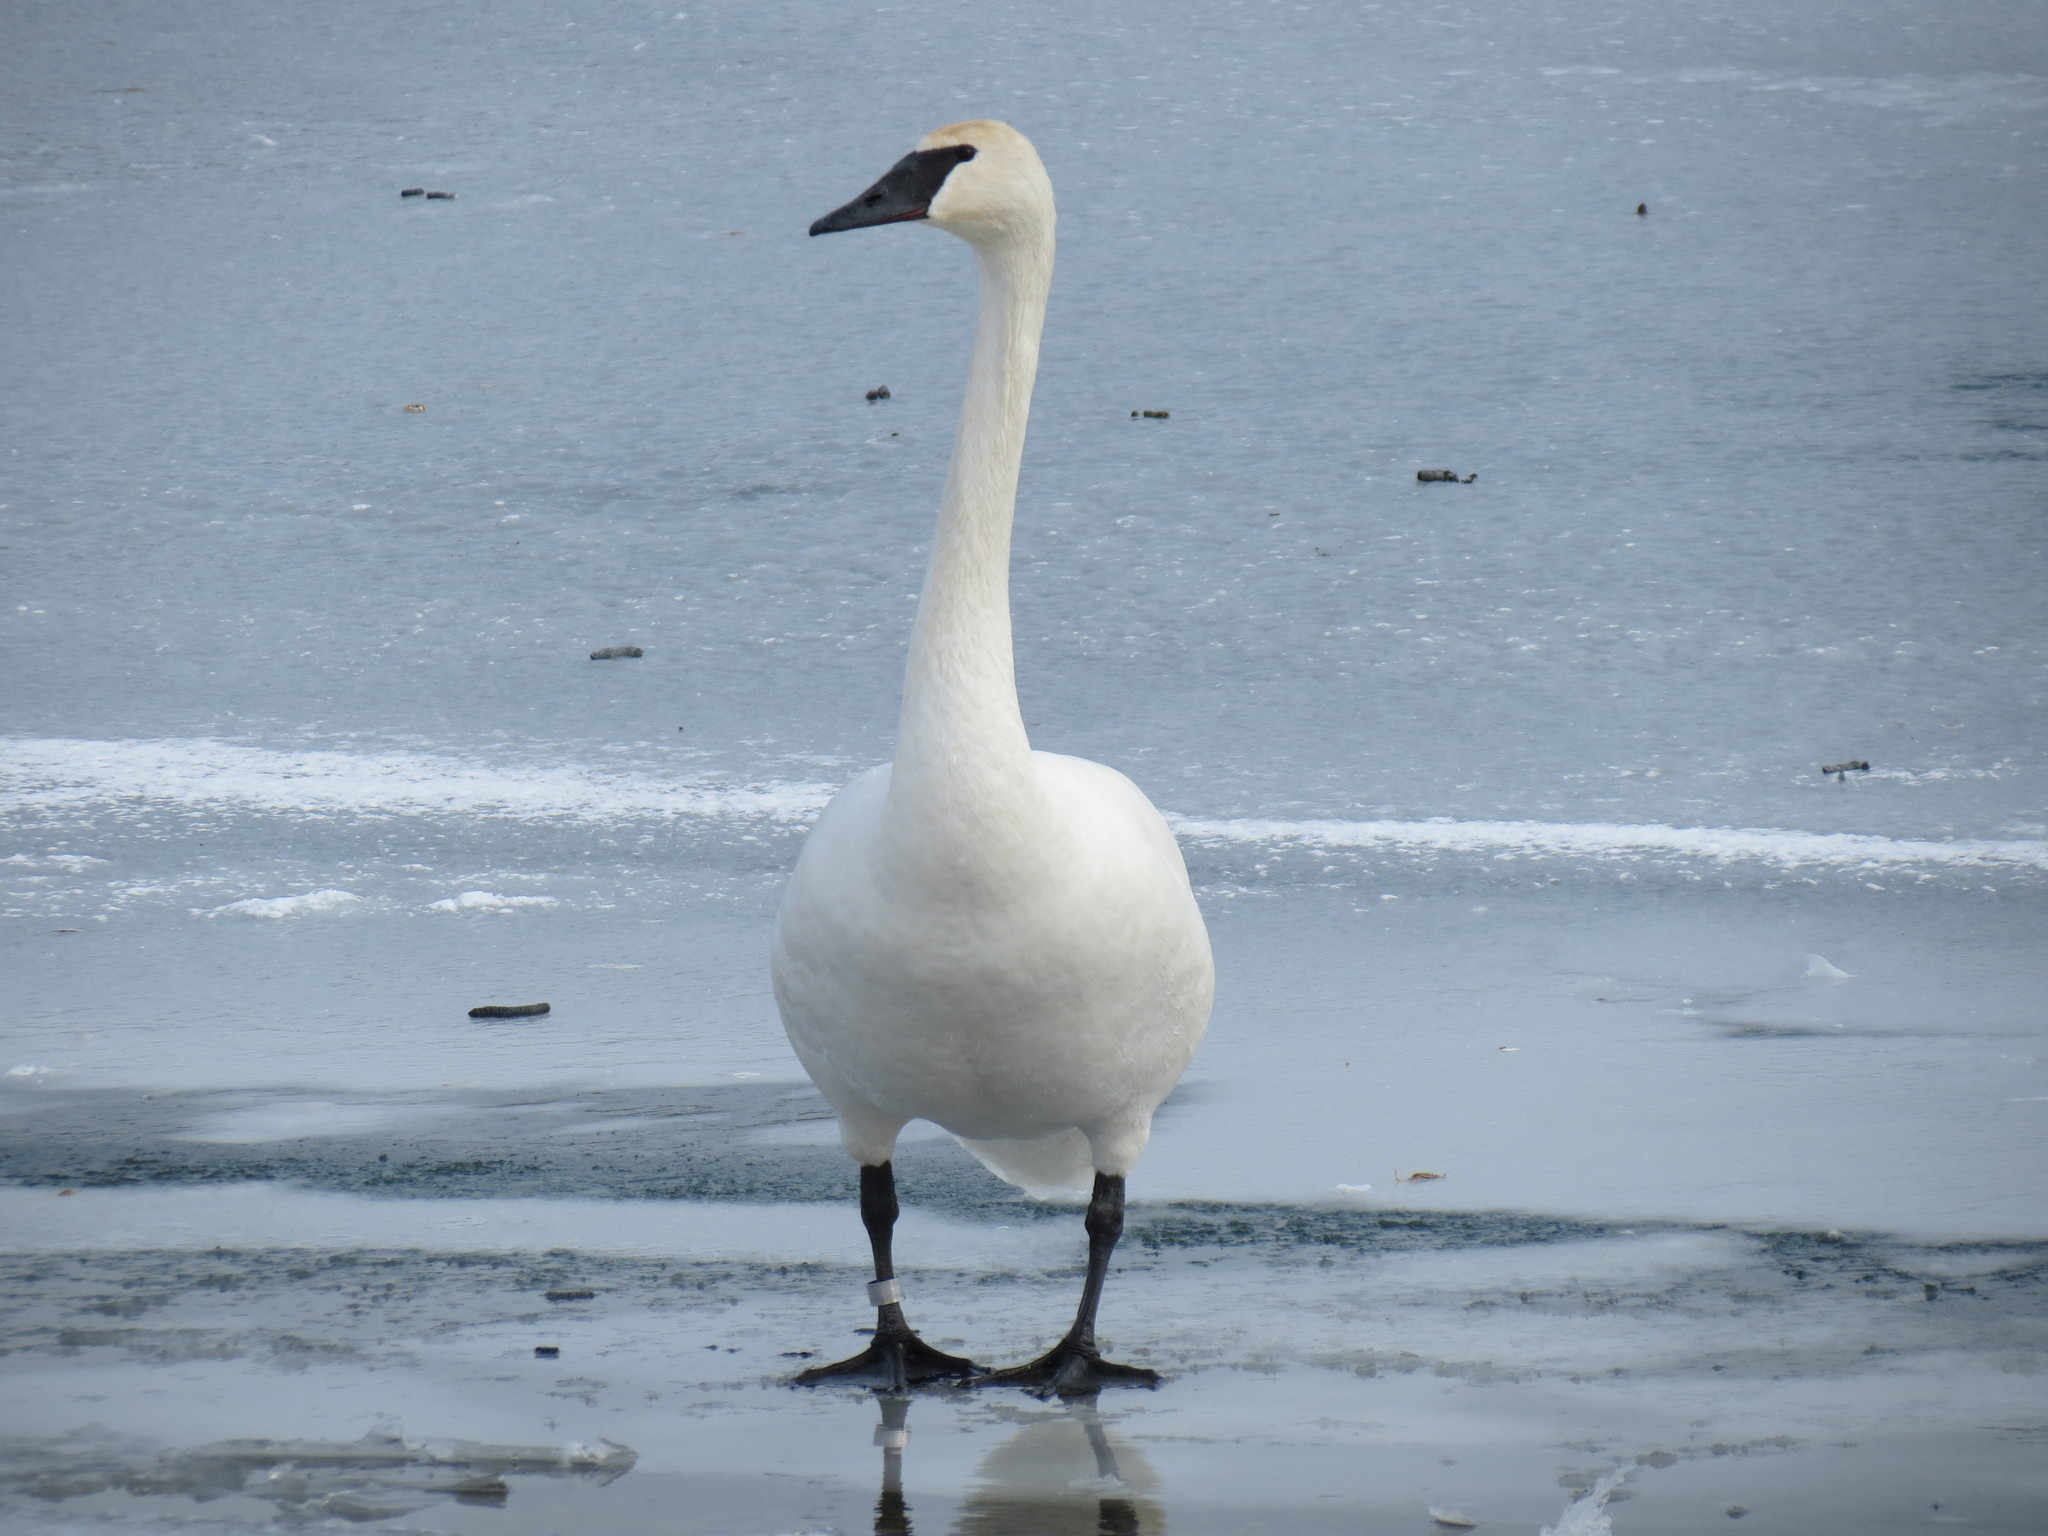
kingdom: Animalia
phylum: Chordata
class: Aves
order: Anseriformes
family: Anatidae
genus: Cygnus
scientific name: Cygnus buccinator
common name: Trumpeter swan
